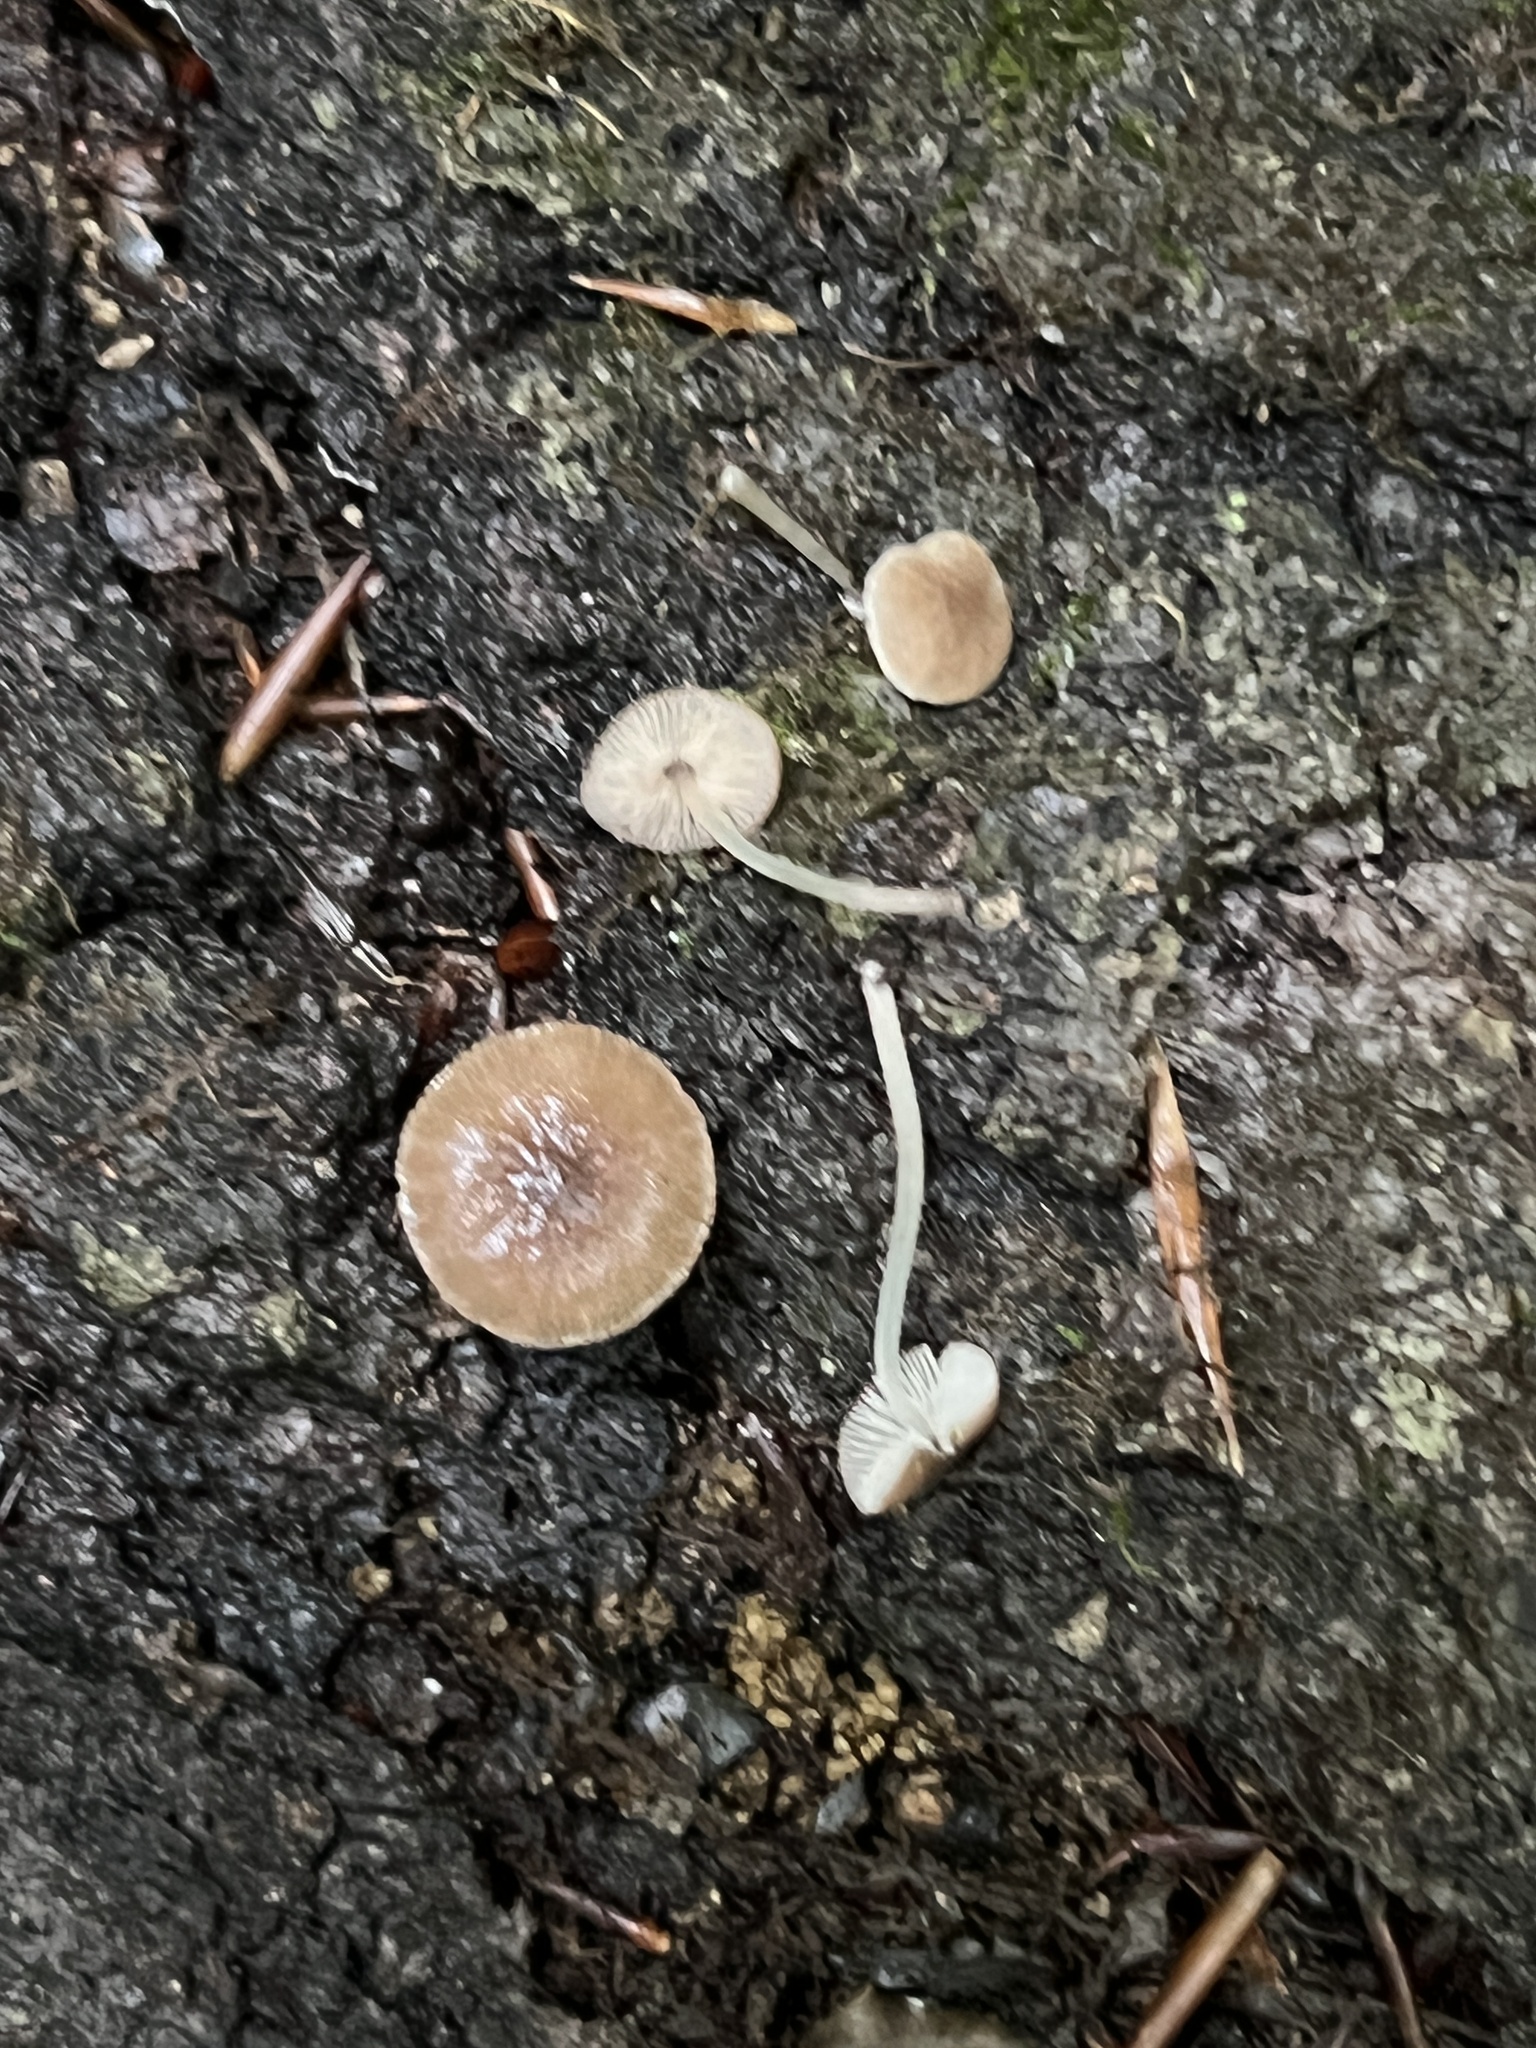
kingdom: Fungi
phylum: Basidiomycota
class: Agaricomycetes
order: Agaricales
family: Pluteaceae
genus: Pluteus
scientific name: Pluteus podospileus
